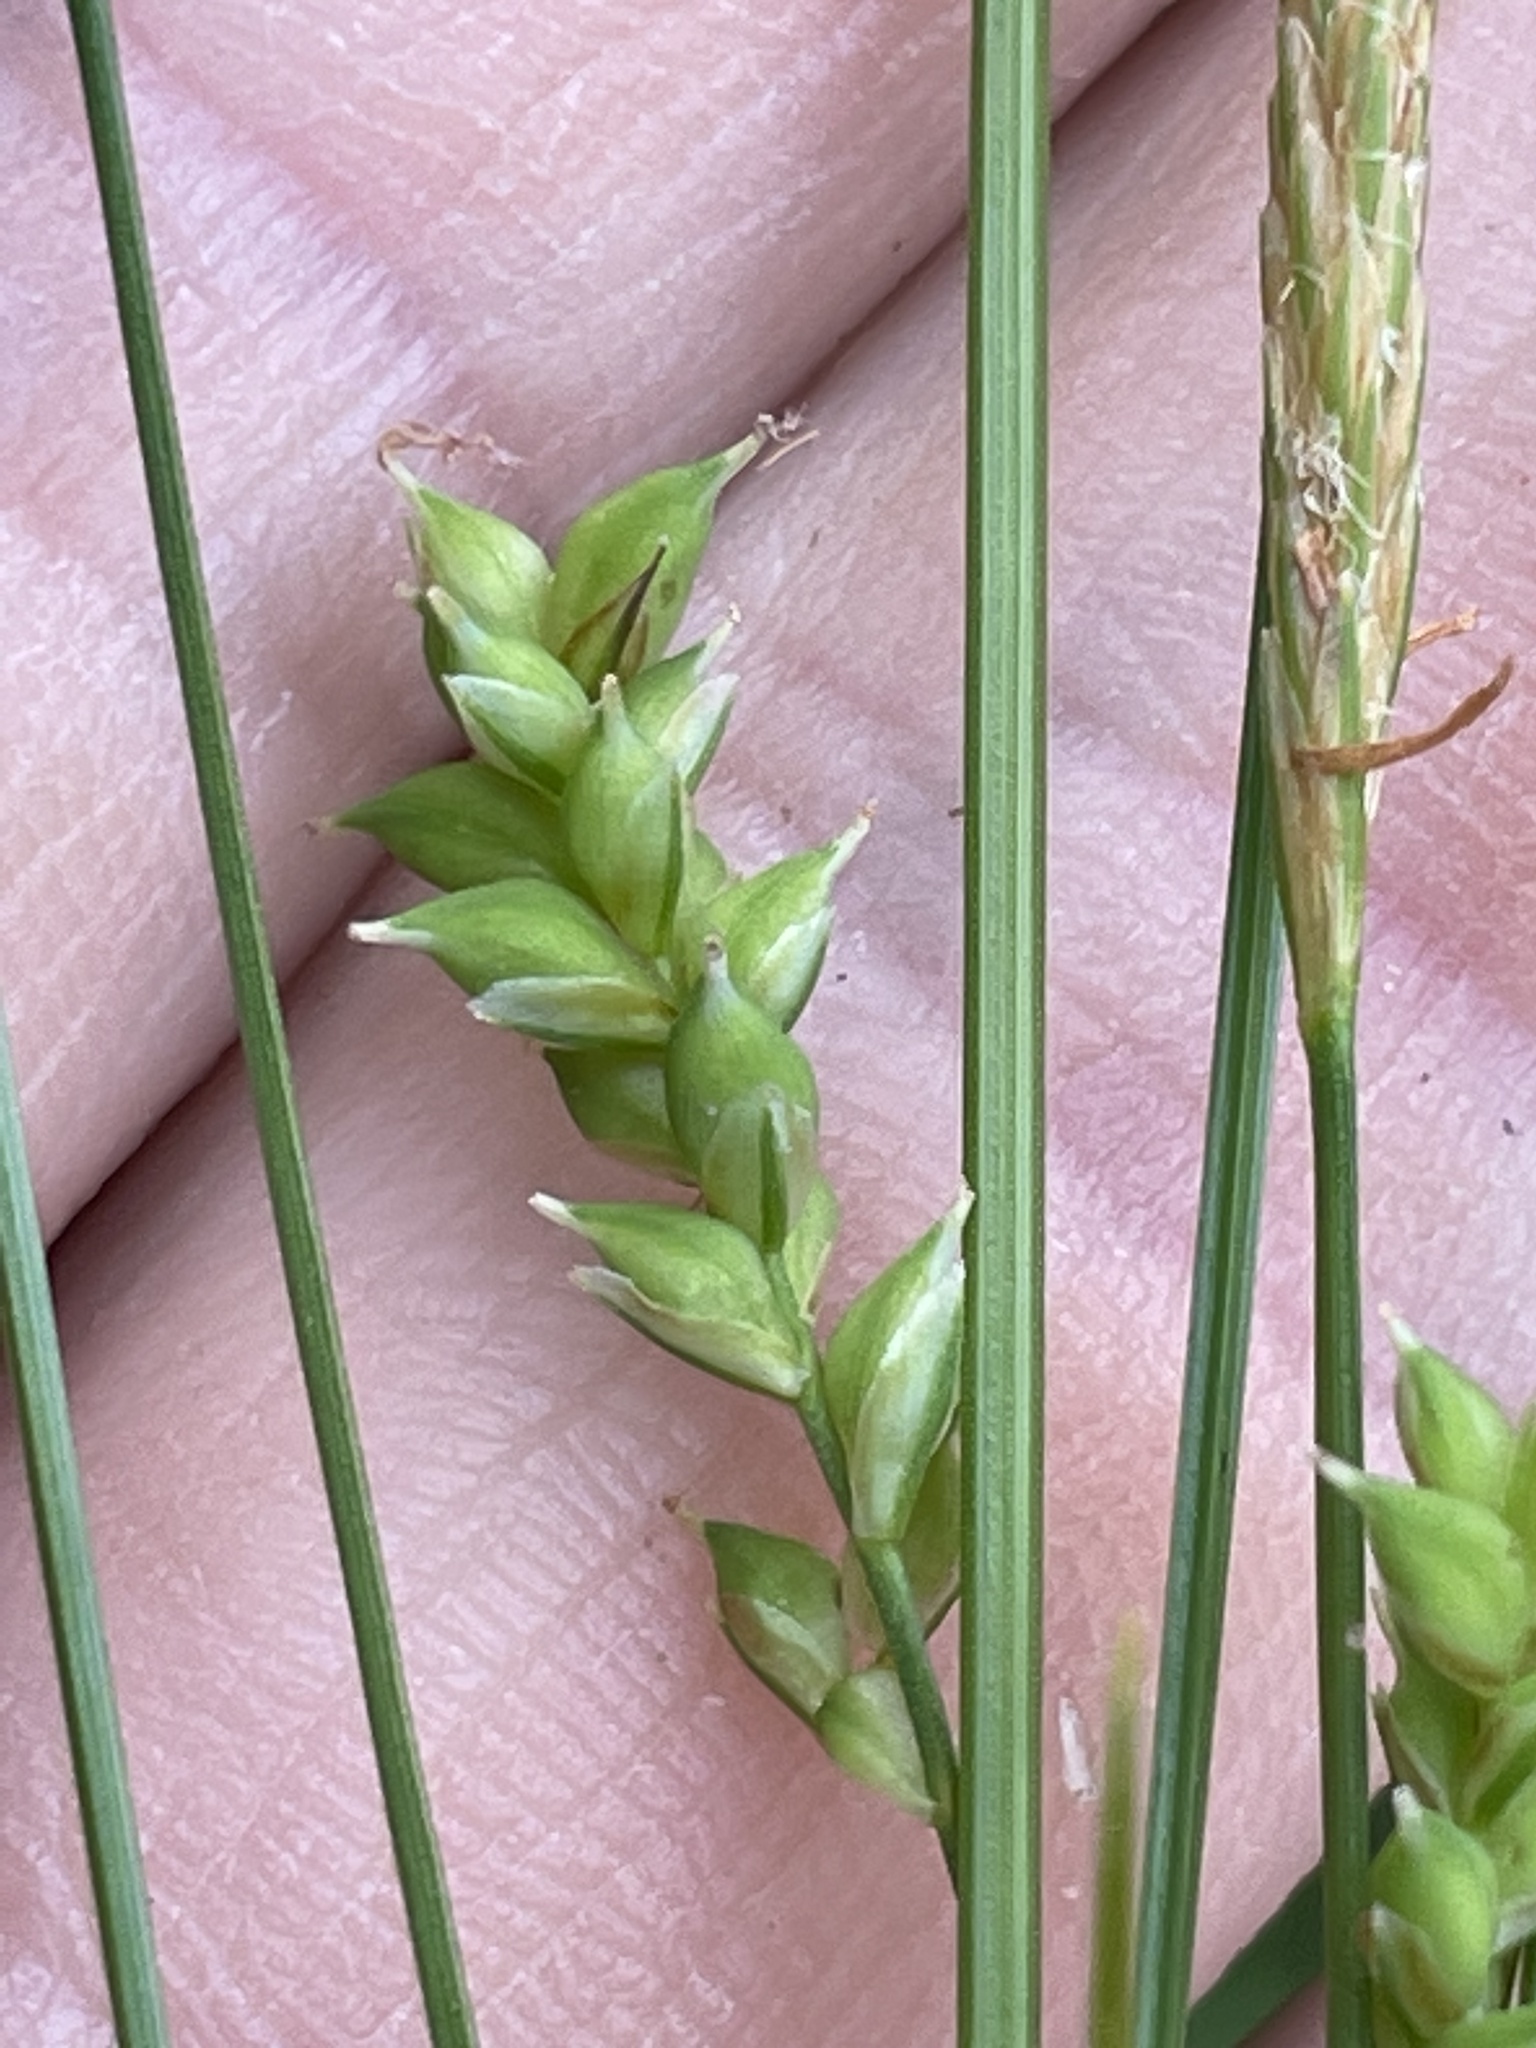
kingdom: Plantae
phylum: Tracheophyta
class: Liliopsida
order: Poales
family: Cyperaceae
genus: Carex
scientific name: Carex styloflexa
